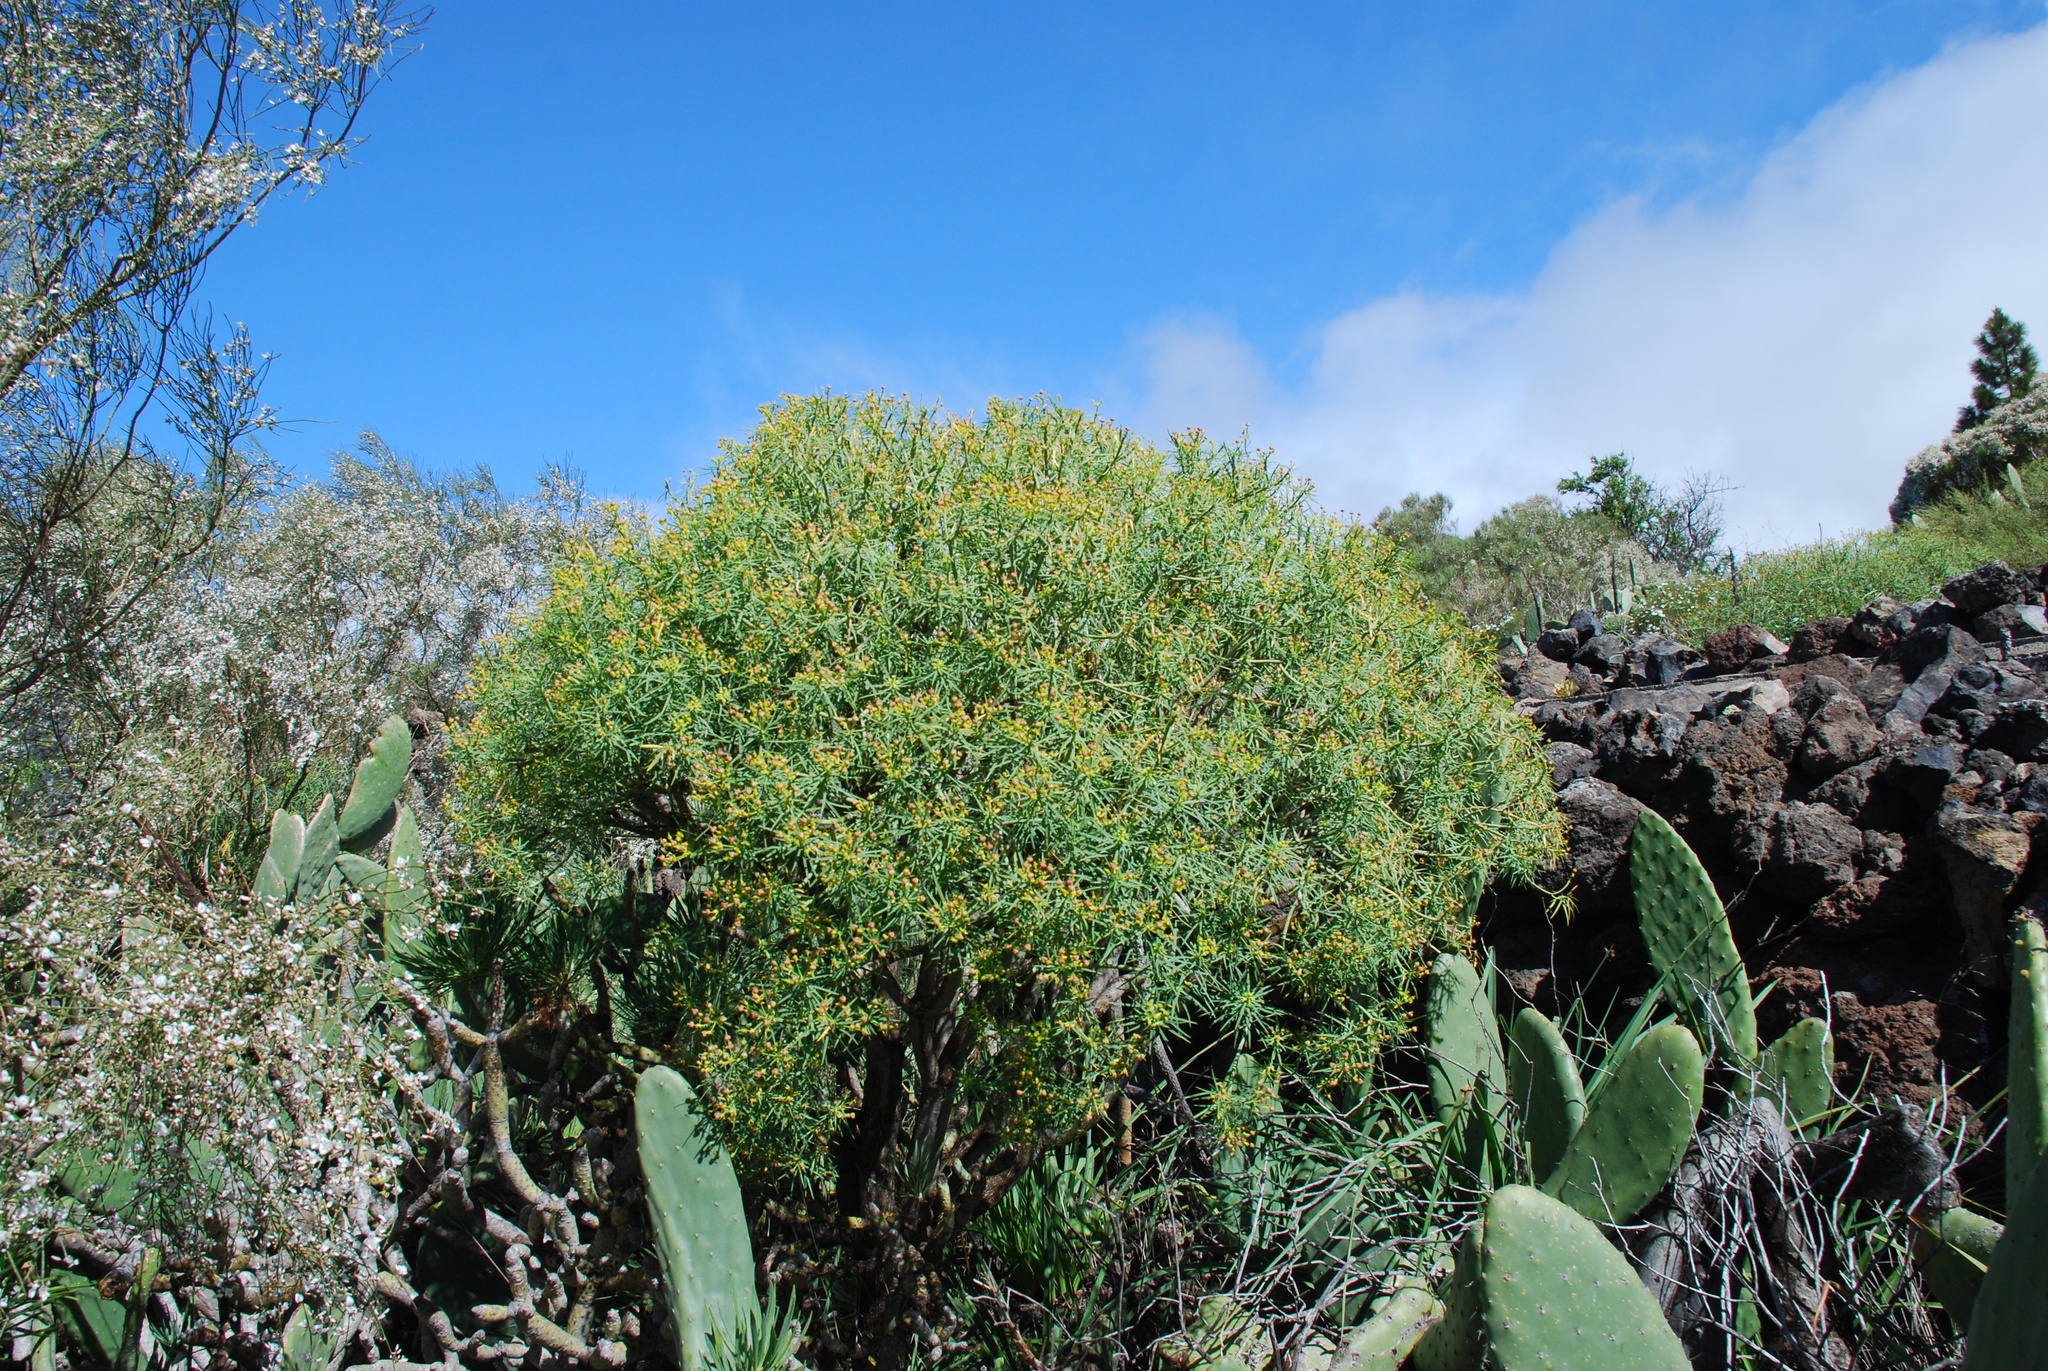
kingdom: Plantae
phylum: Tracheophyta
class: Magnoliopsida
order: Malpighiales
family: Euphorbiaceae
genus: Euphorbia
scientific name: Euphorbia lamarckii
